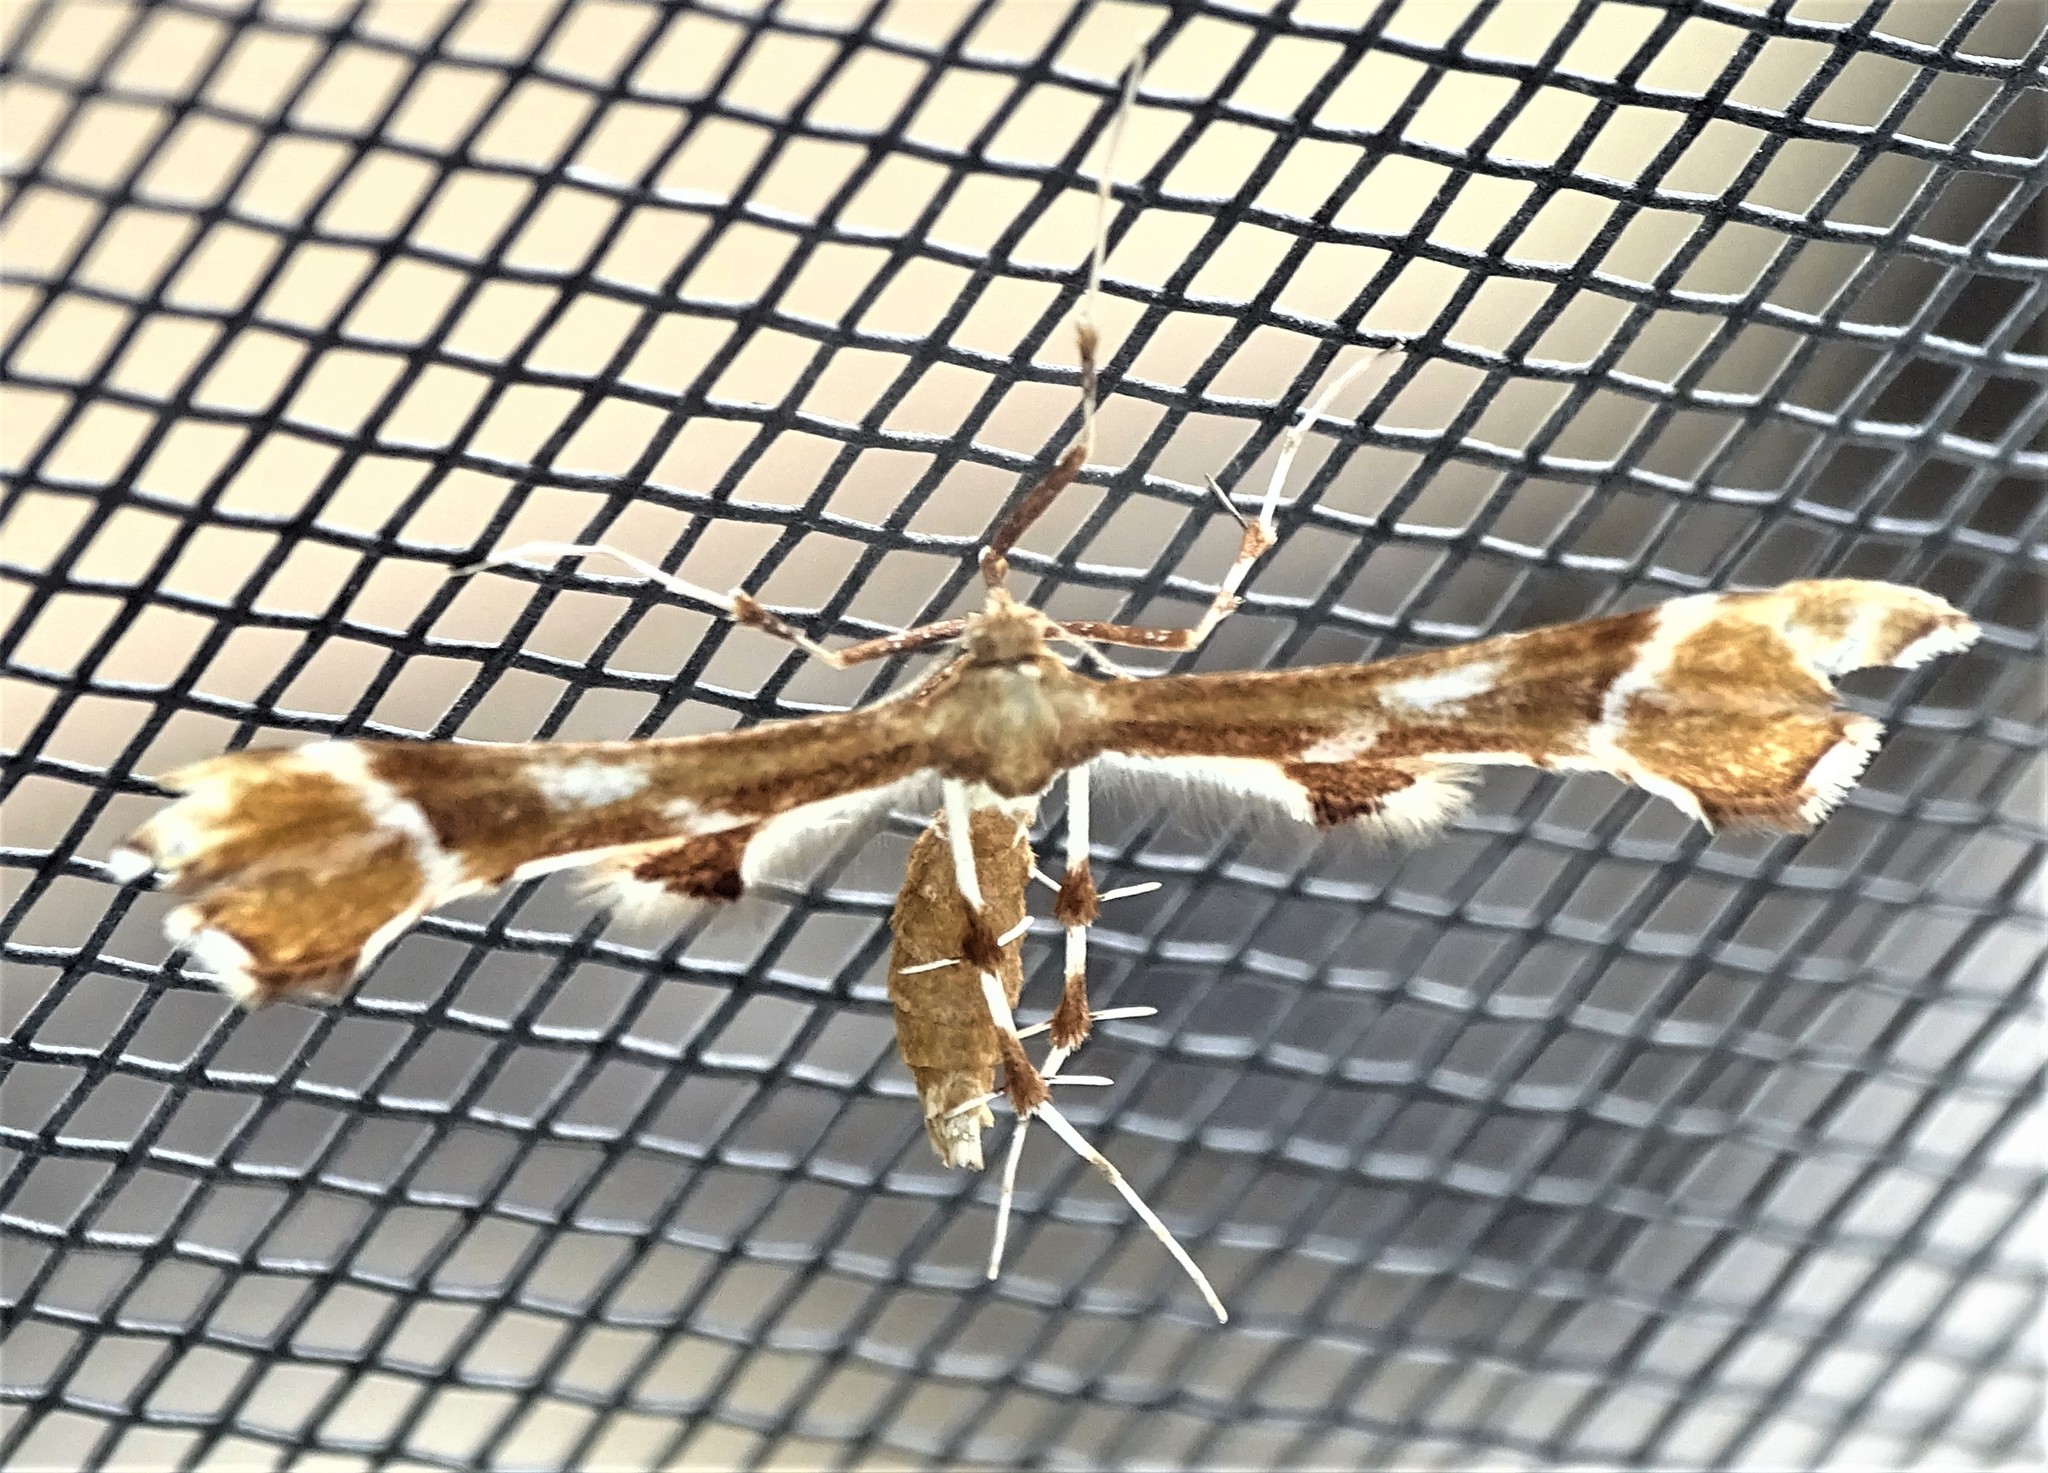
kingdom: Animalia
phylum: Arthropoda
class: Insecta
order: Lepidoptera
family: Pterophoridae
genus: Cnaemidophorus
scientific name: Cnaemidophorus rhododactyla
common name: Rose plume
